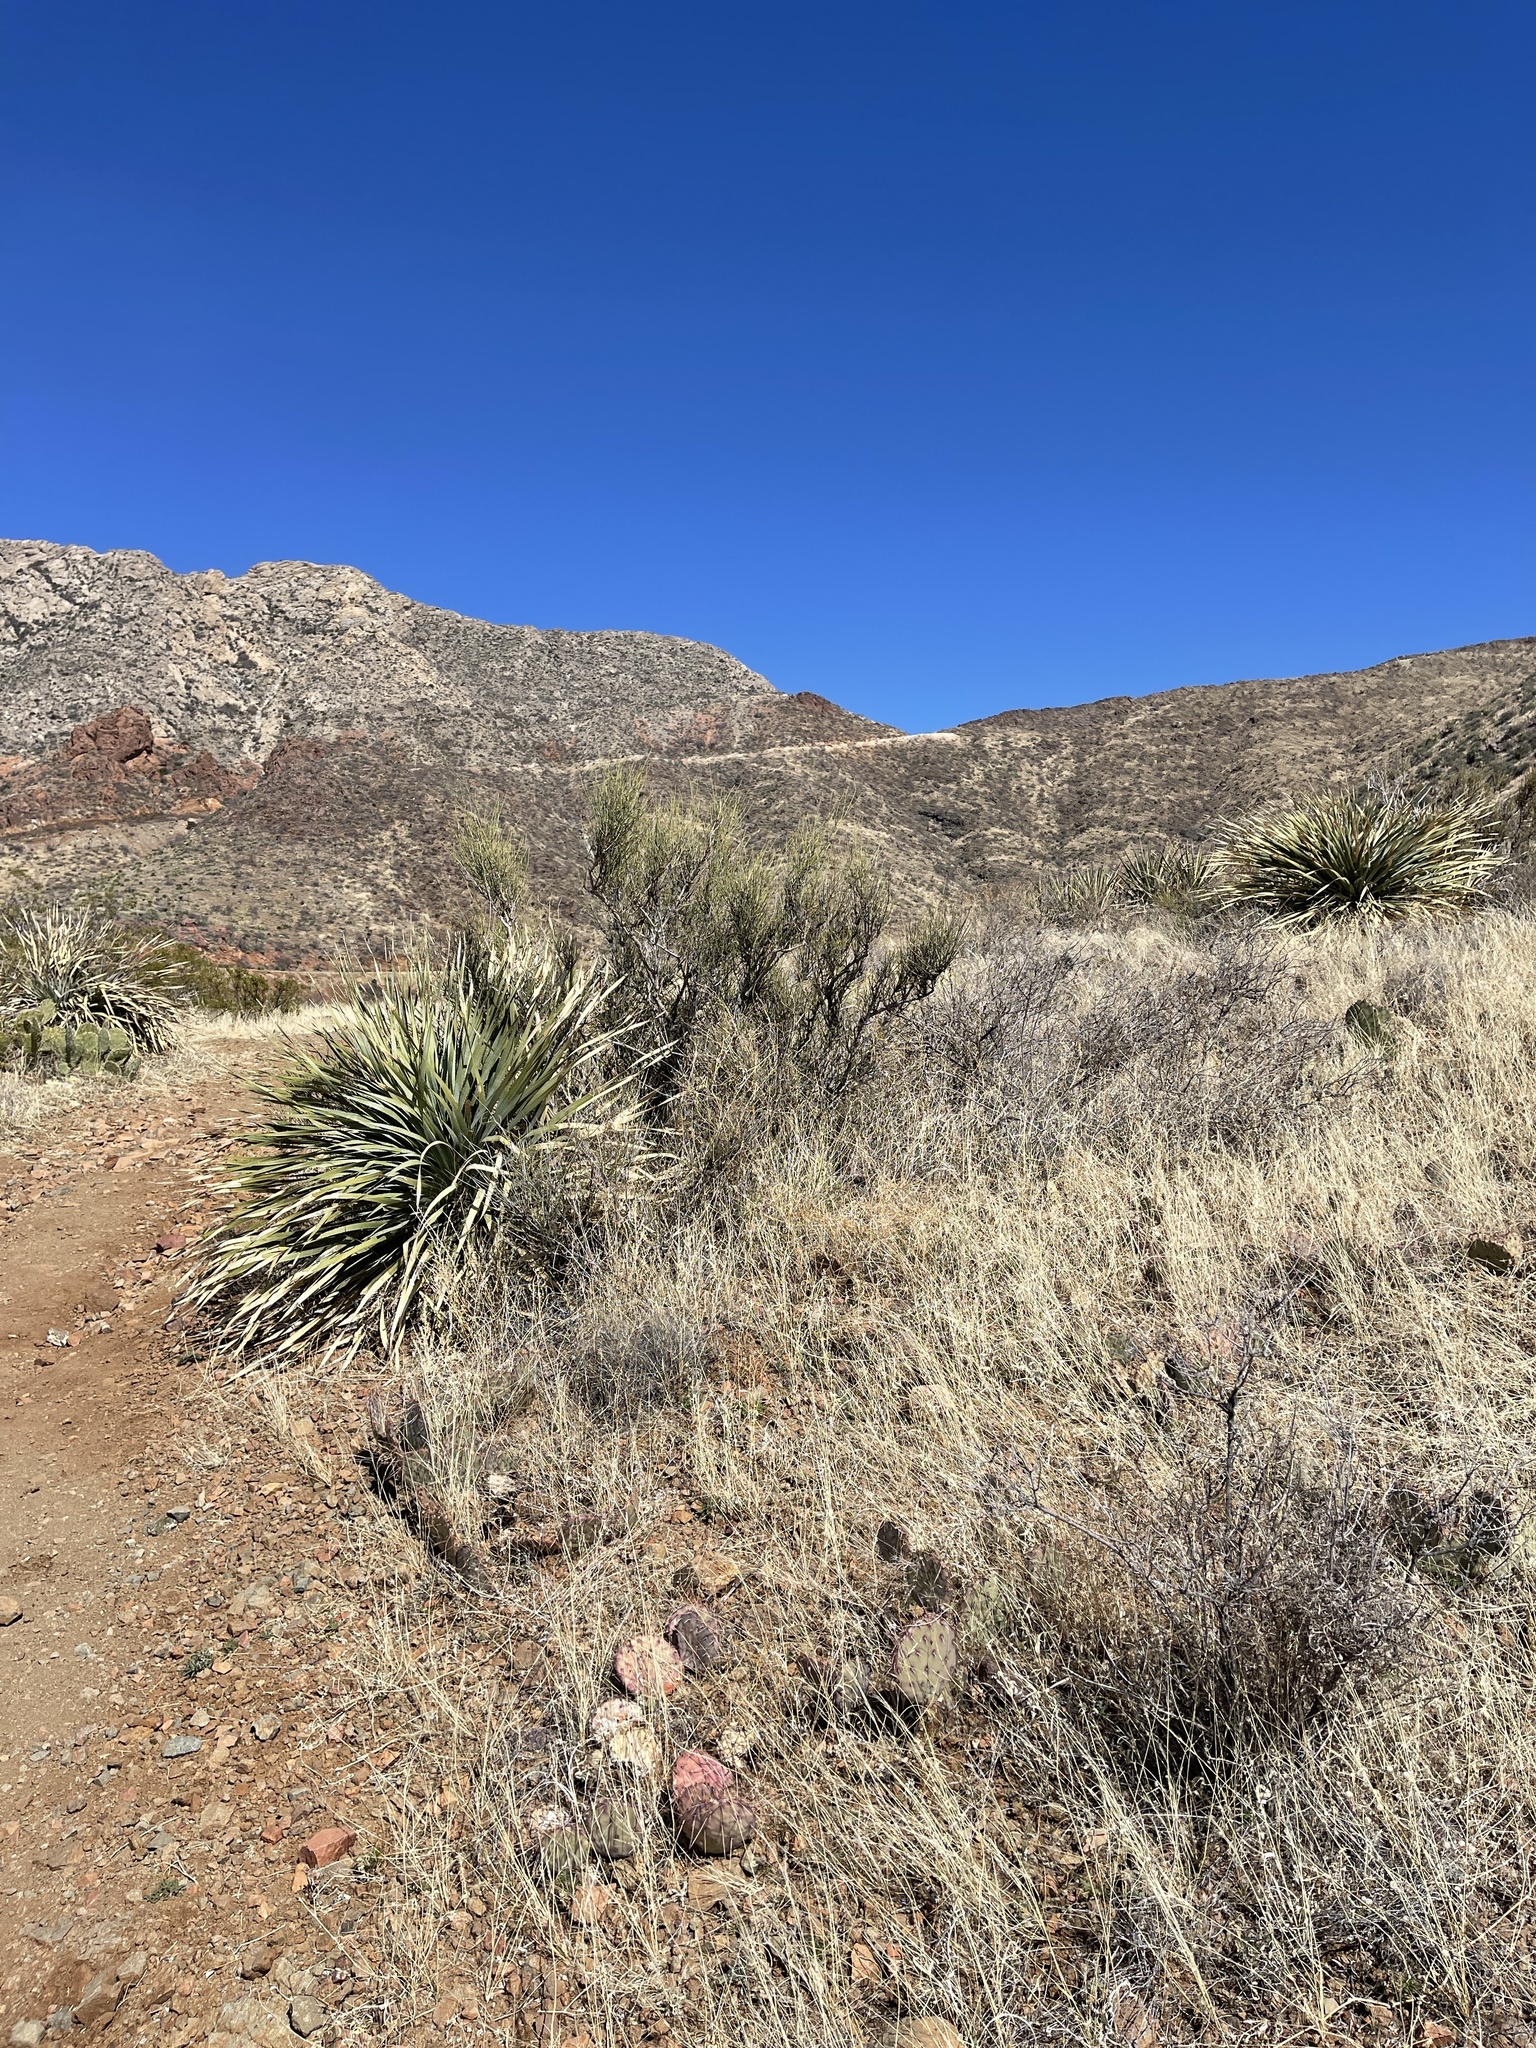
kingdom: Plantae
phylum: Tracheophyta
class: Gnetopsida
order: Ephedrales
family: Ephedraceae
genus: Ephedra
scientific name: Ephedra trifurca
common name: Mexican-tea
